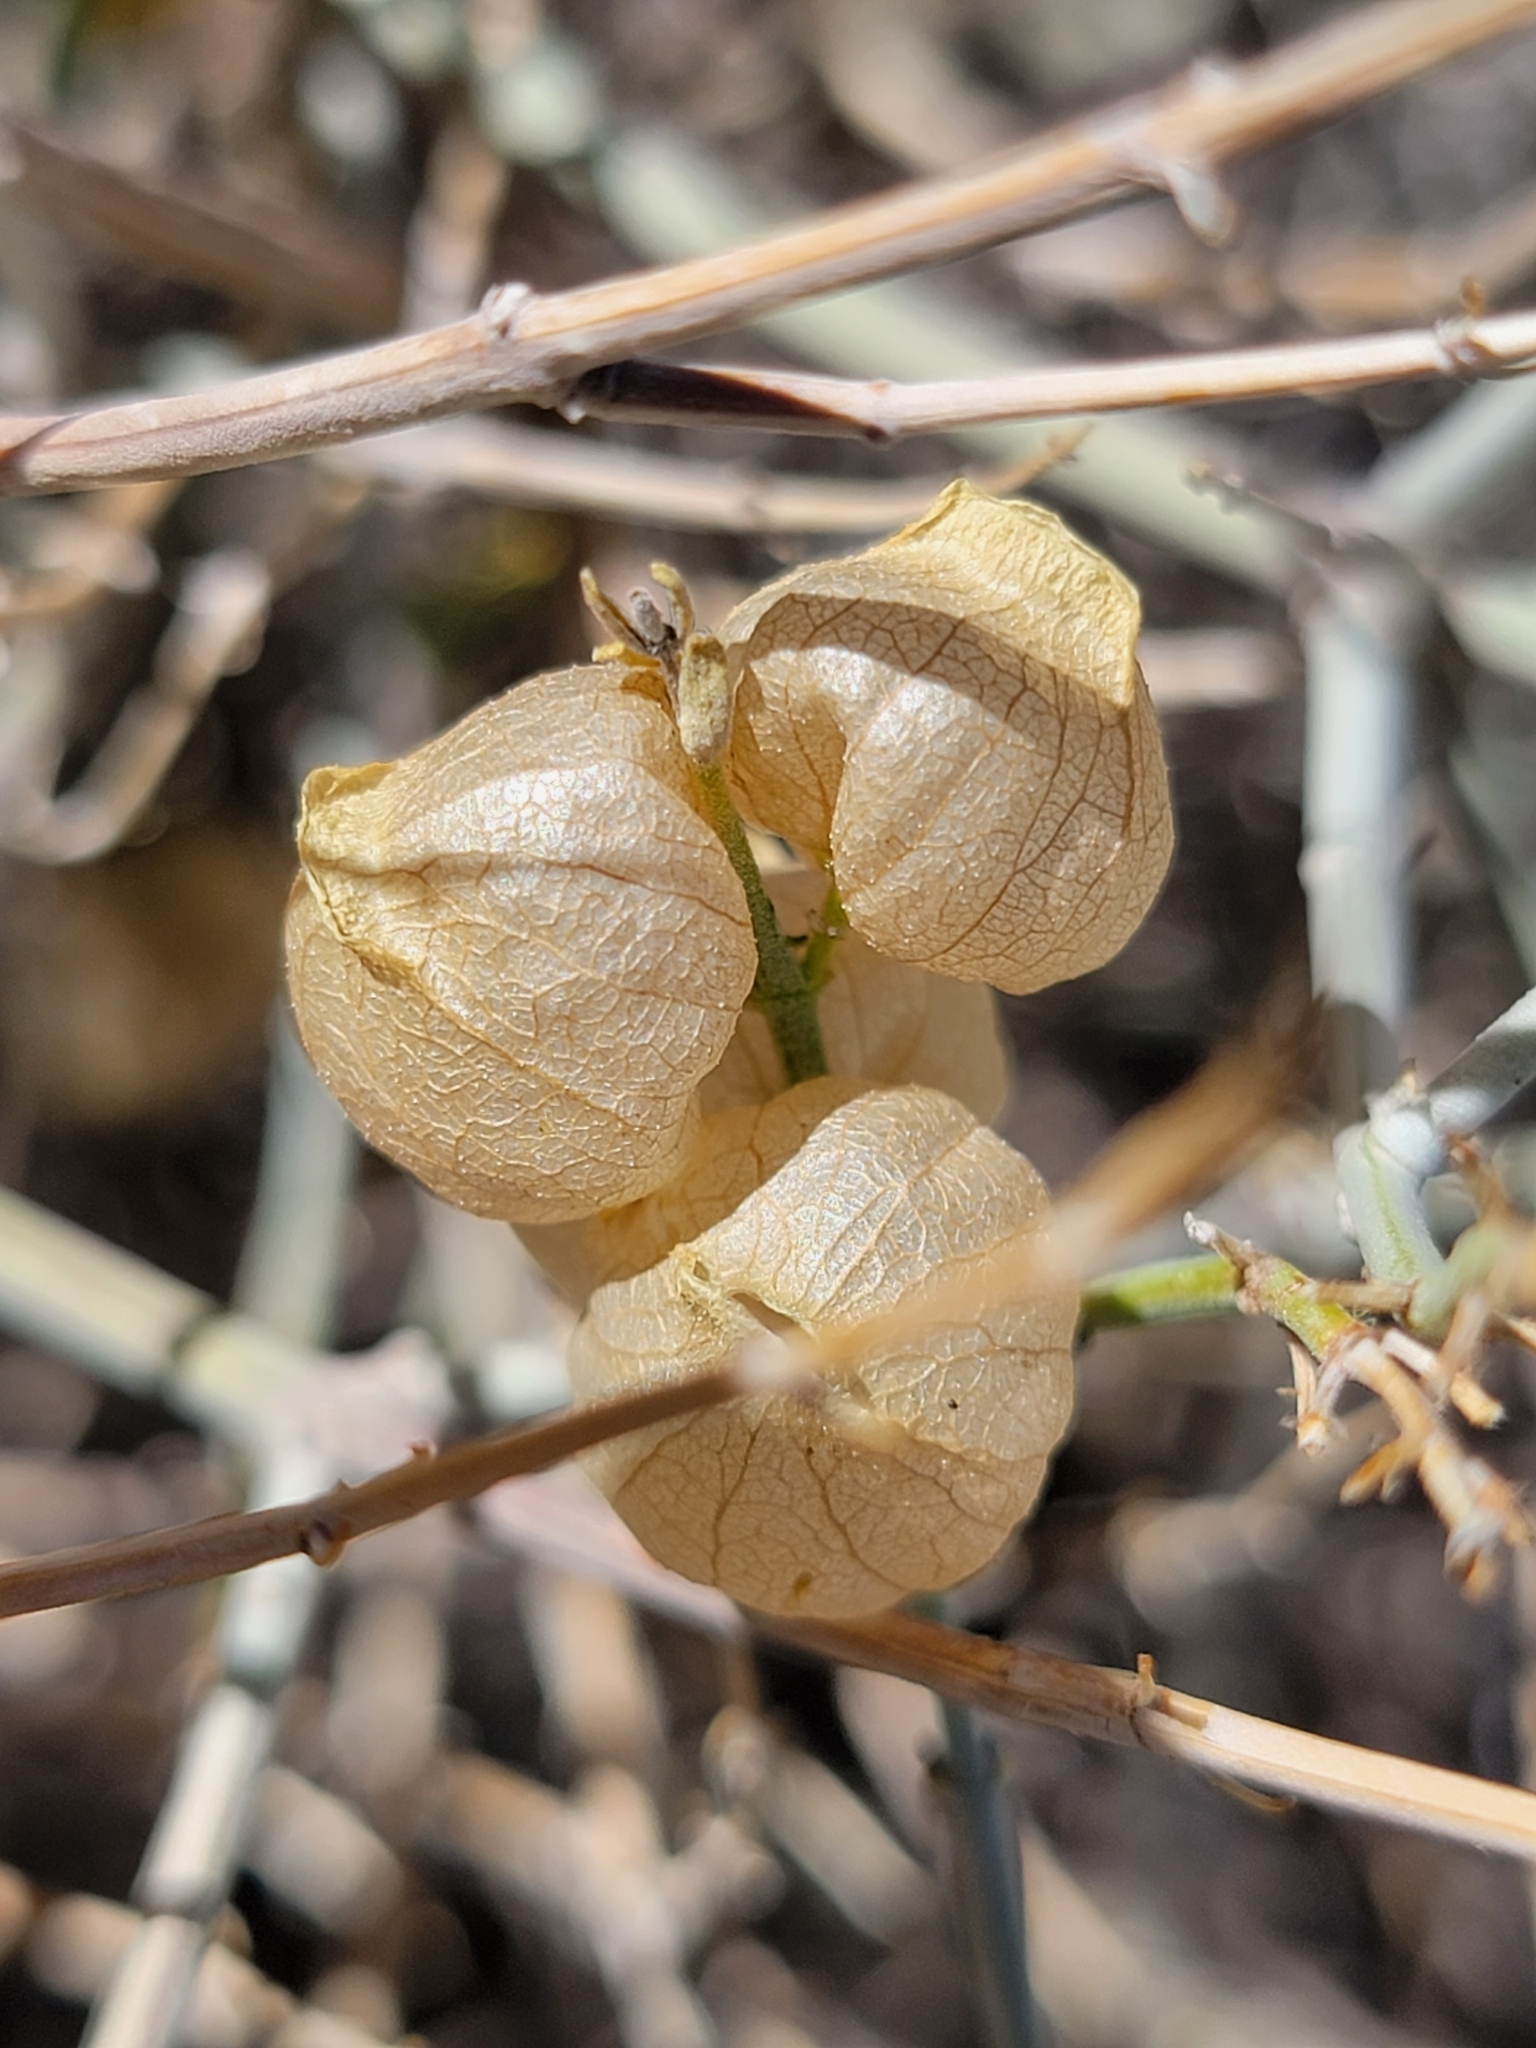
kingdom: Plantae
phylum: Tracheophyta
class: Magnoliopsida
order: Lamiales
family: Lamiaceae
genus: Scutellaria
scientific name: Scutellaria mexicana
